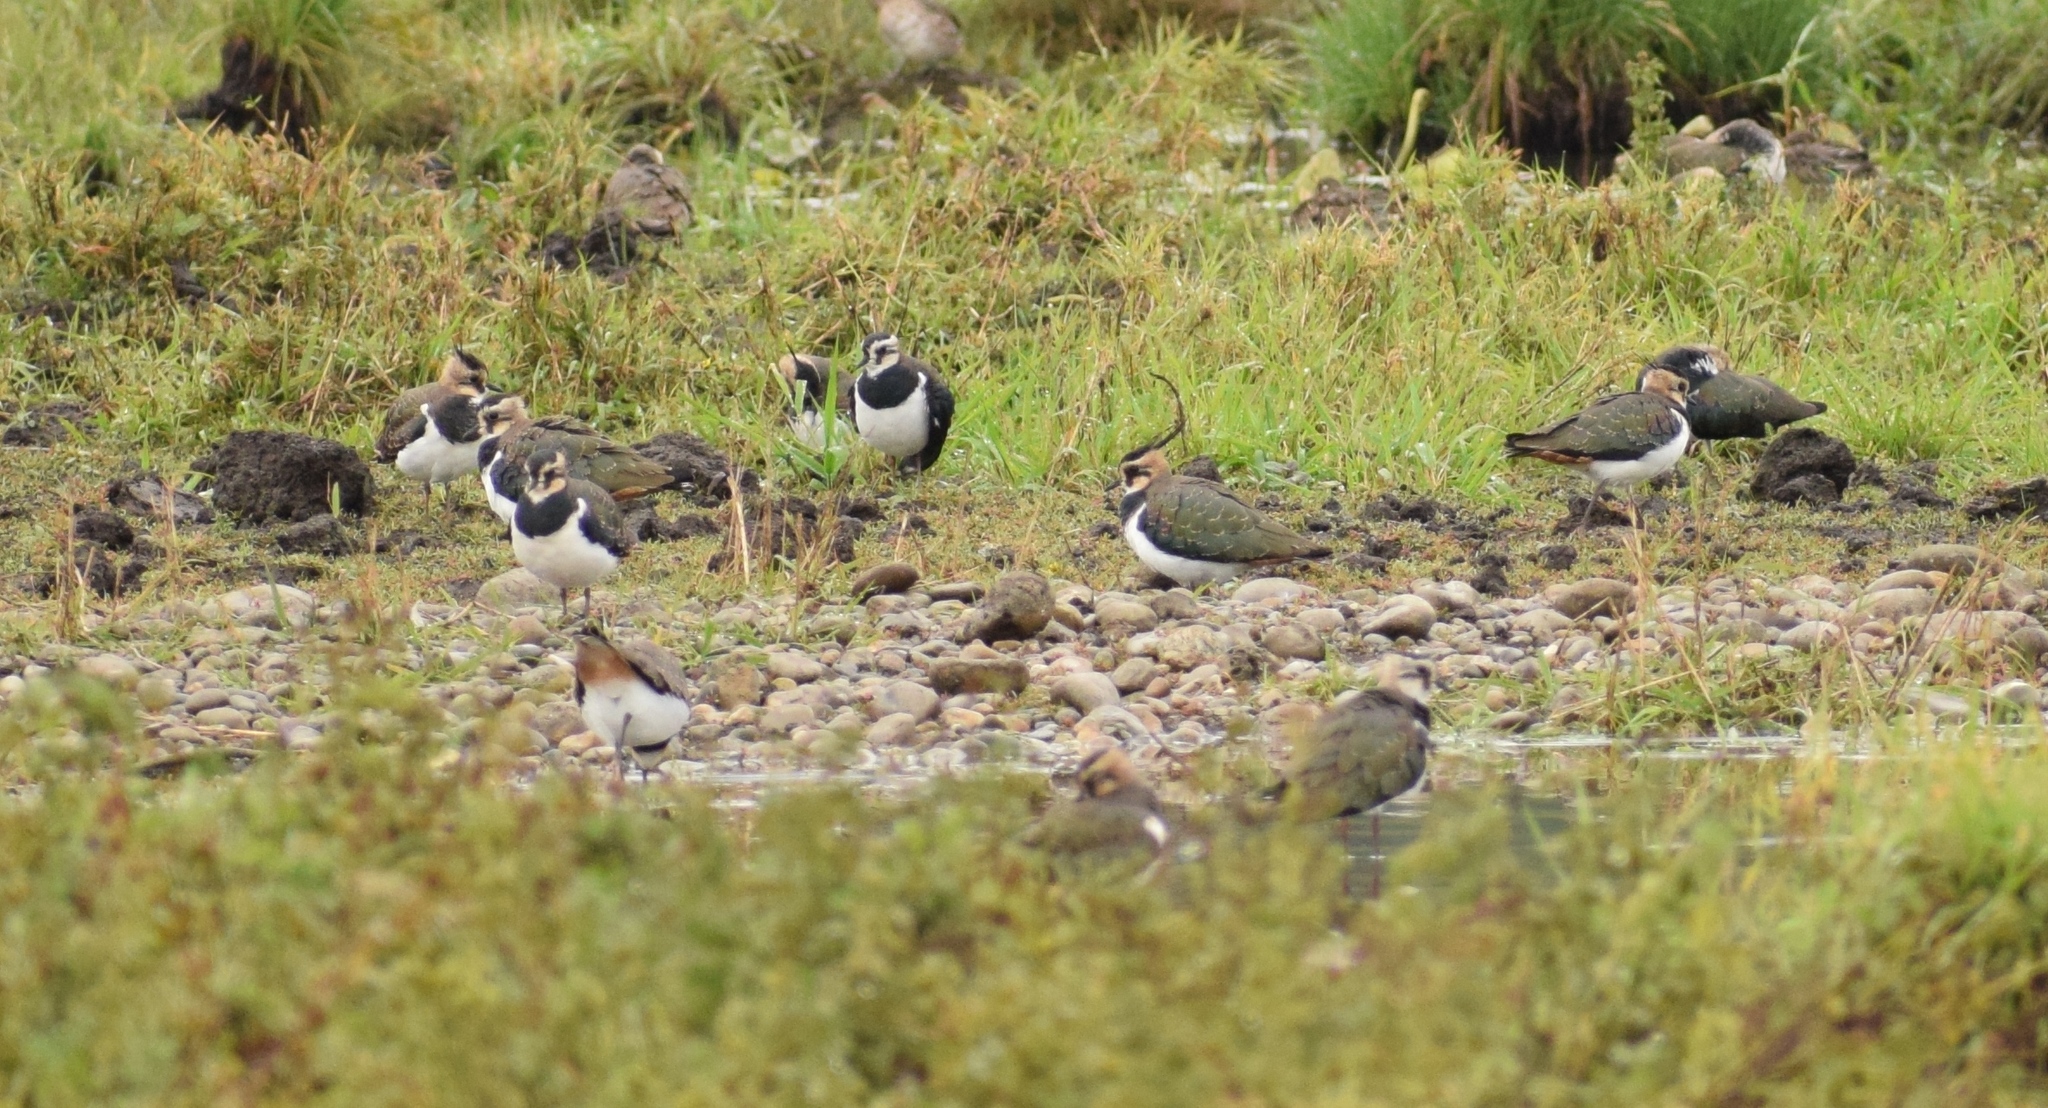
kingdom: Animalia
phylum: Chordata
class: Aves
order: Charadriiformes
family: Charadriidae
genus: Vanellus
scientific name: Vanellus vanellus
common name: Northern lapwing
